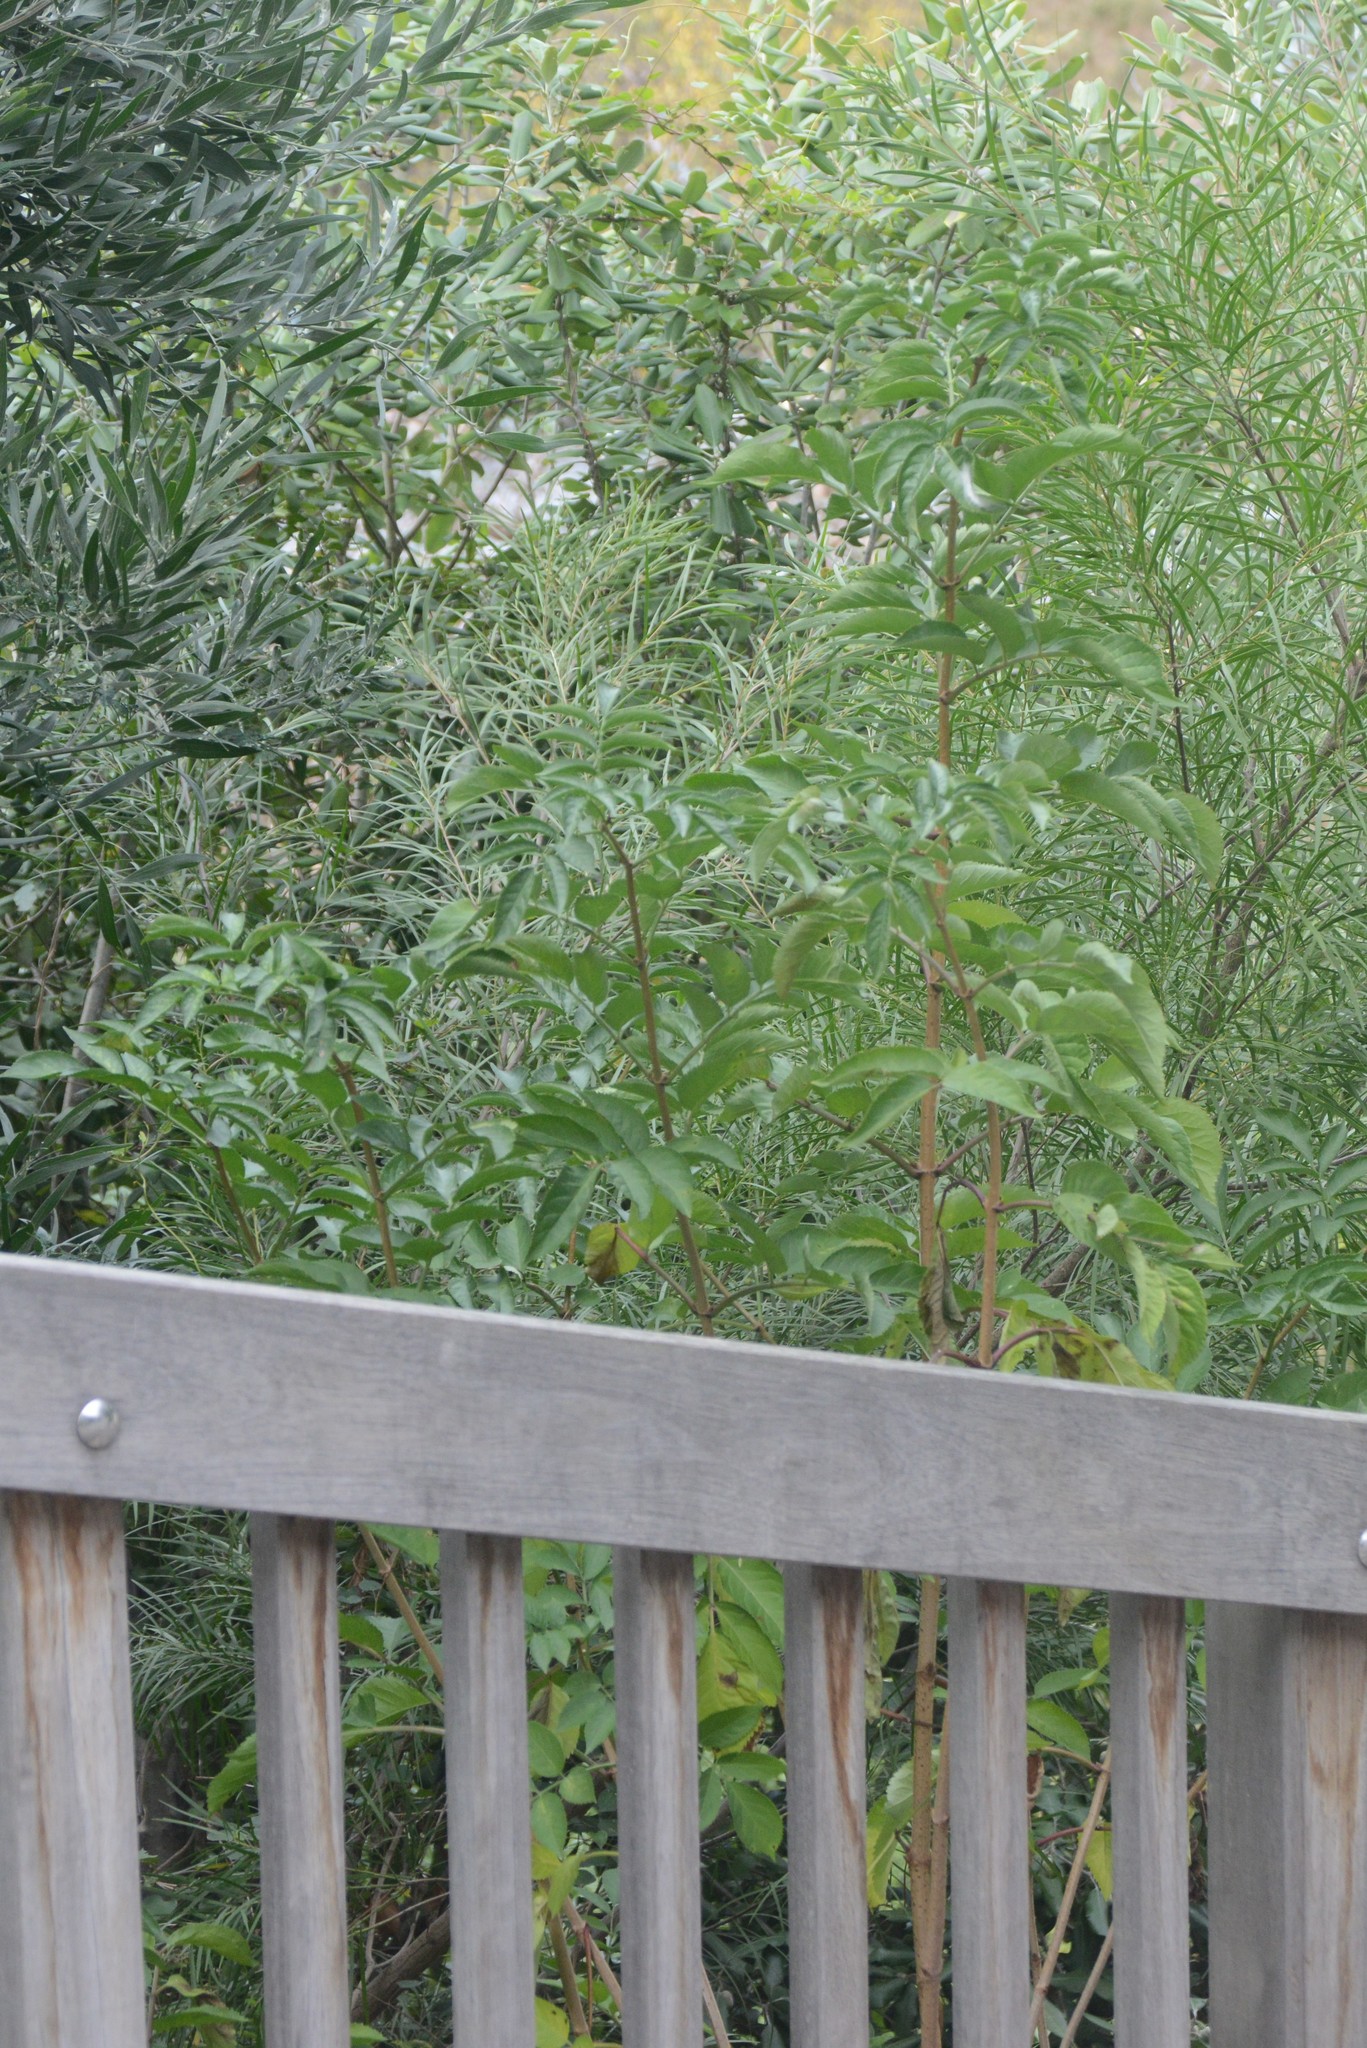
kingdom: Plantae
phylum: Tracheophyta
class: Magnoliopsida
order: Dipsacales
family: Viburnaceae
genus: Sambucus
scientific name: Sambucus nigra
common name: Elder
